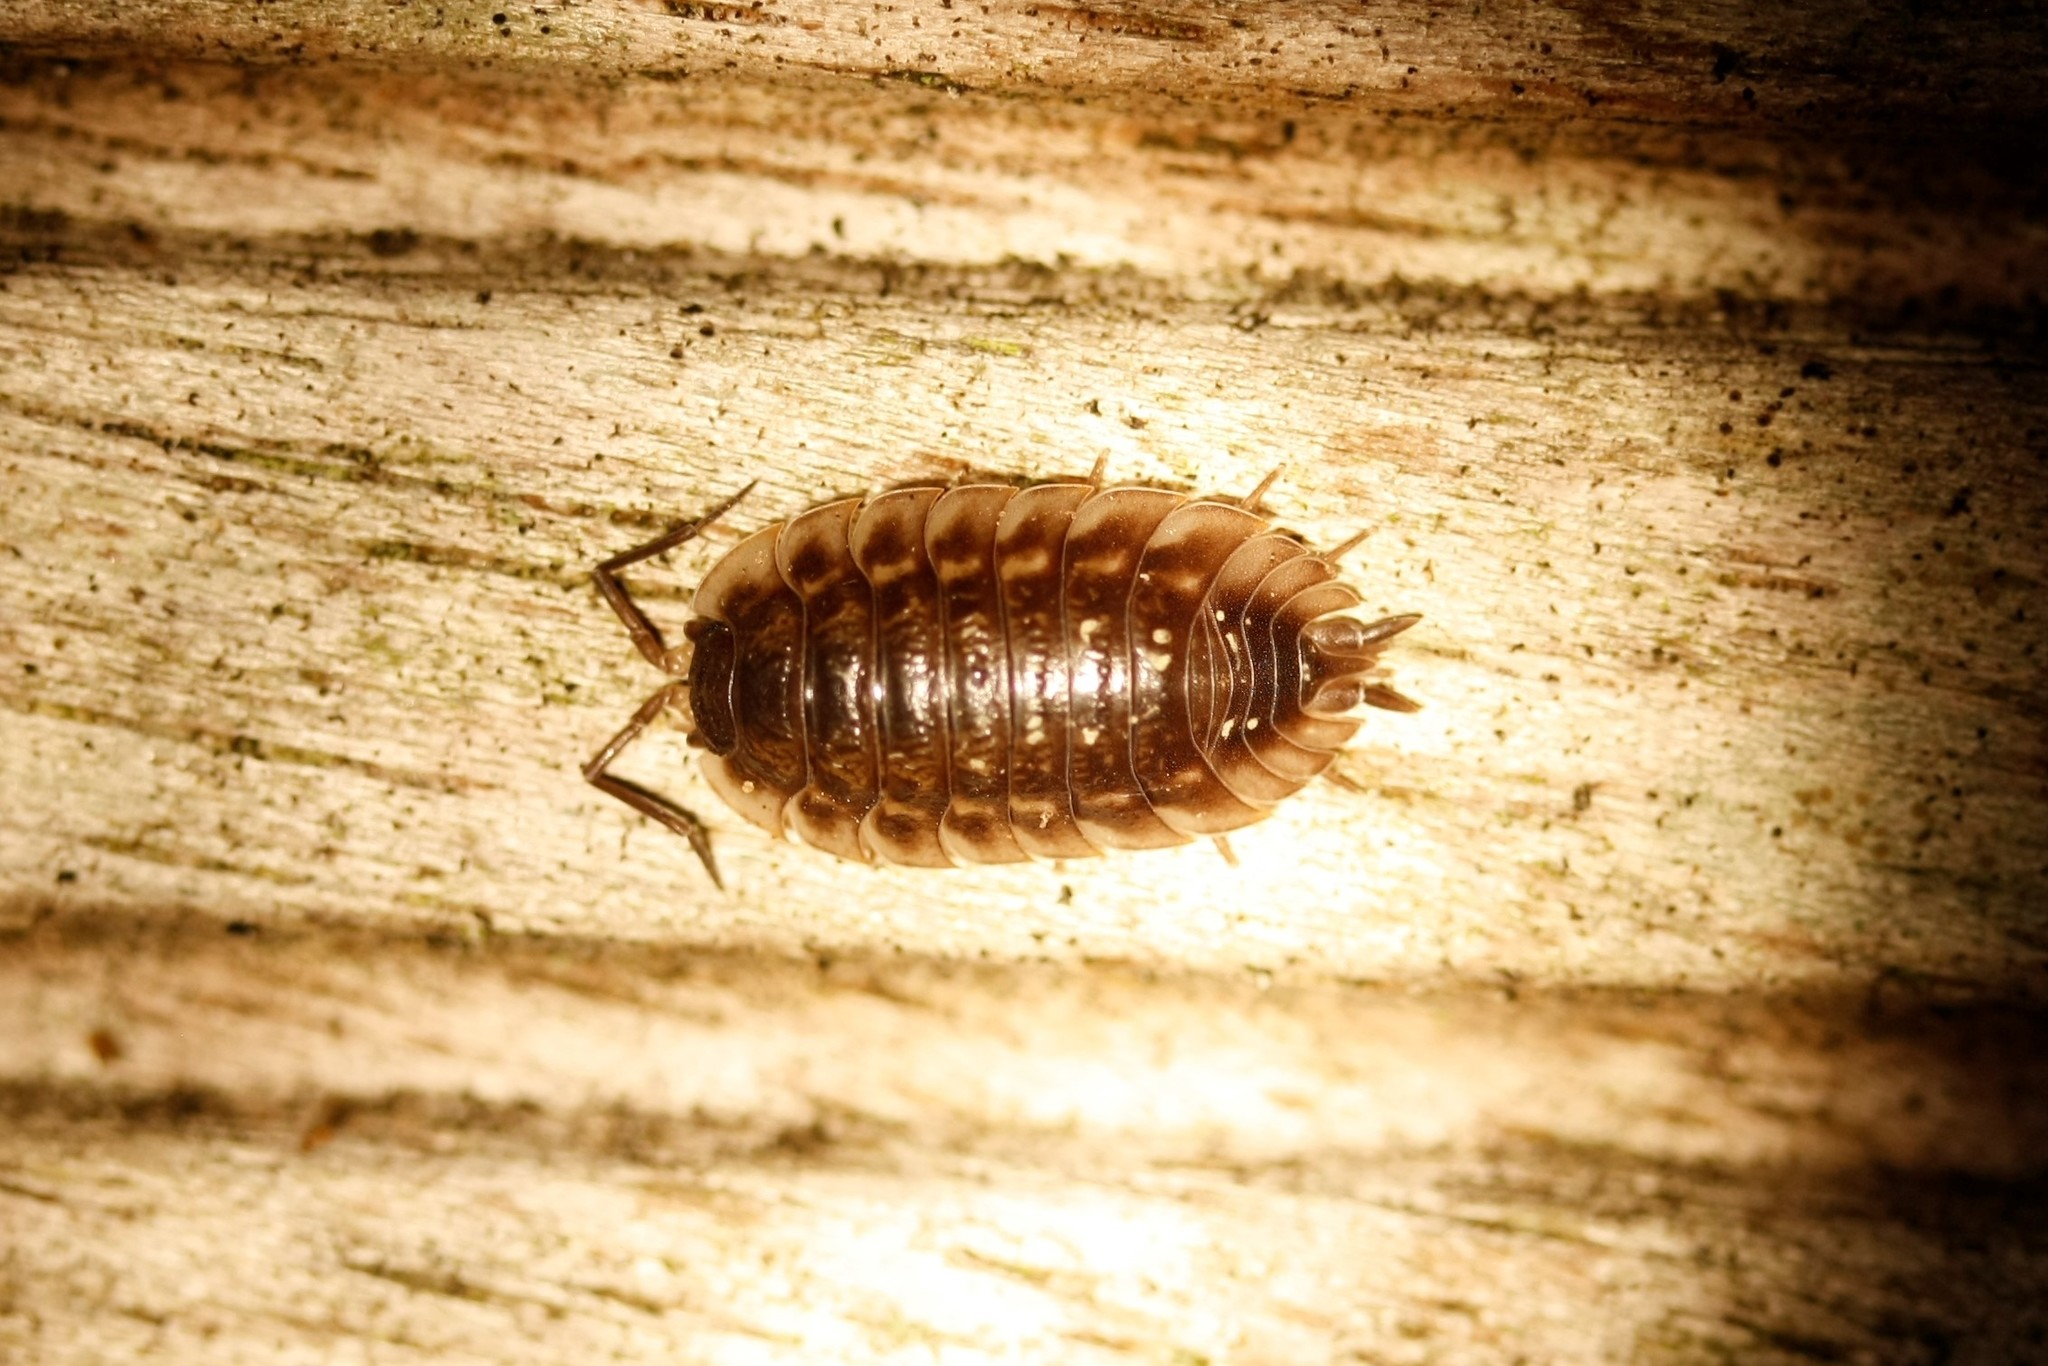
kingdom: Animalia
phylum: Arthropoda
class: Malacostraca
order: Isopoda
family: Oniscidae
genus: Oniscus
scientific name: Oniscus asellus
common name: Common shiny woodlouse
